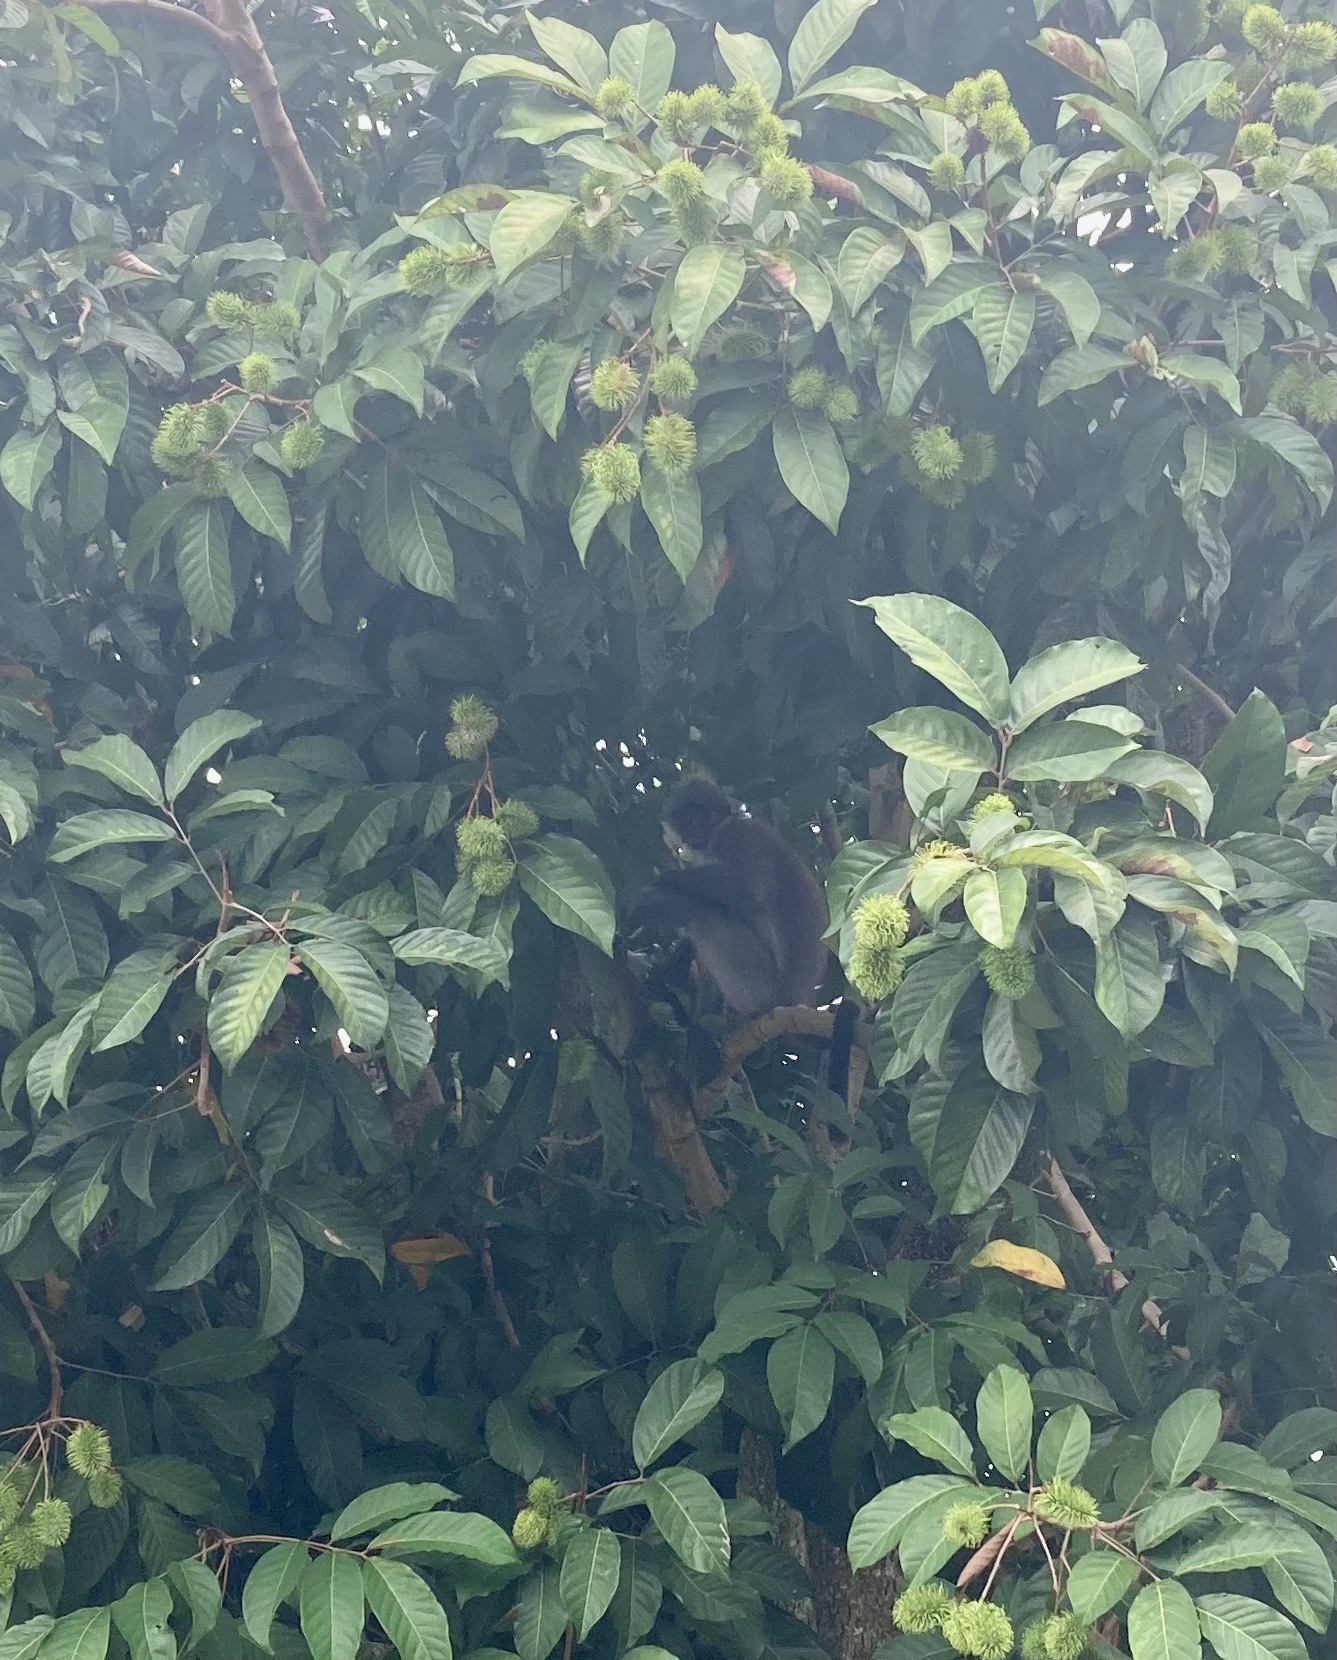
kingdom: Animalia
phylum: Chordata
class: Mammalia
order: Primates
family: Cercopithecidae
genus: Presbytis
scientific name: Presbytis siamensis
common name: White-thighed surili
